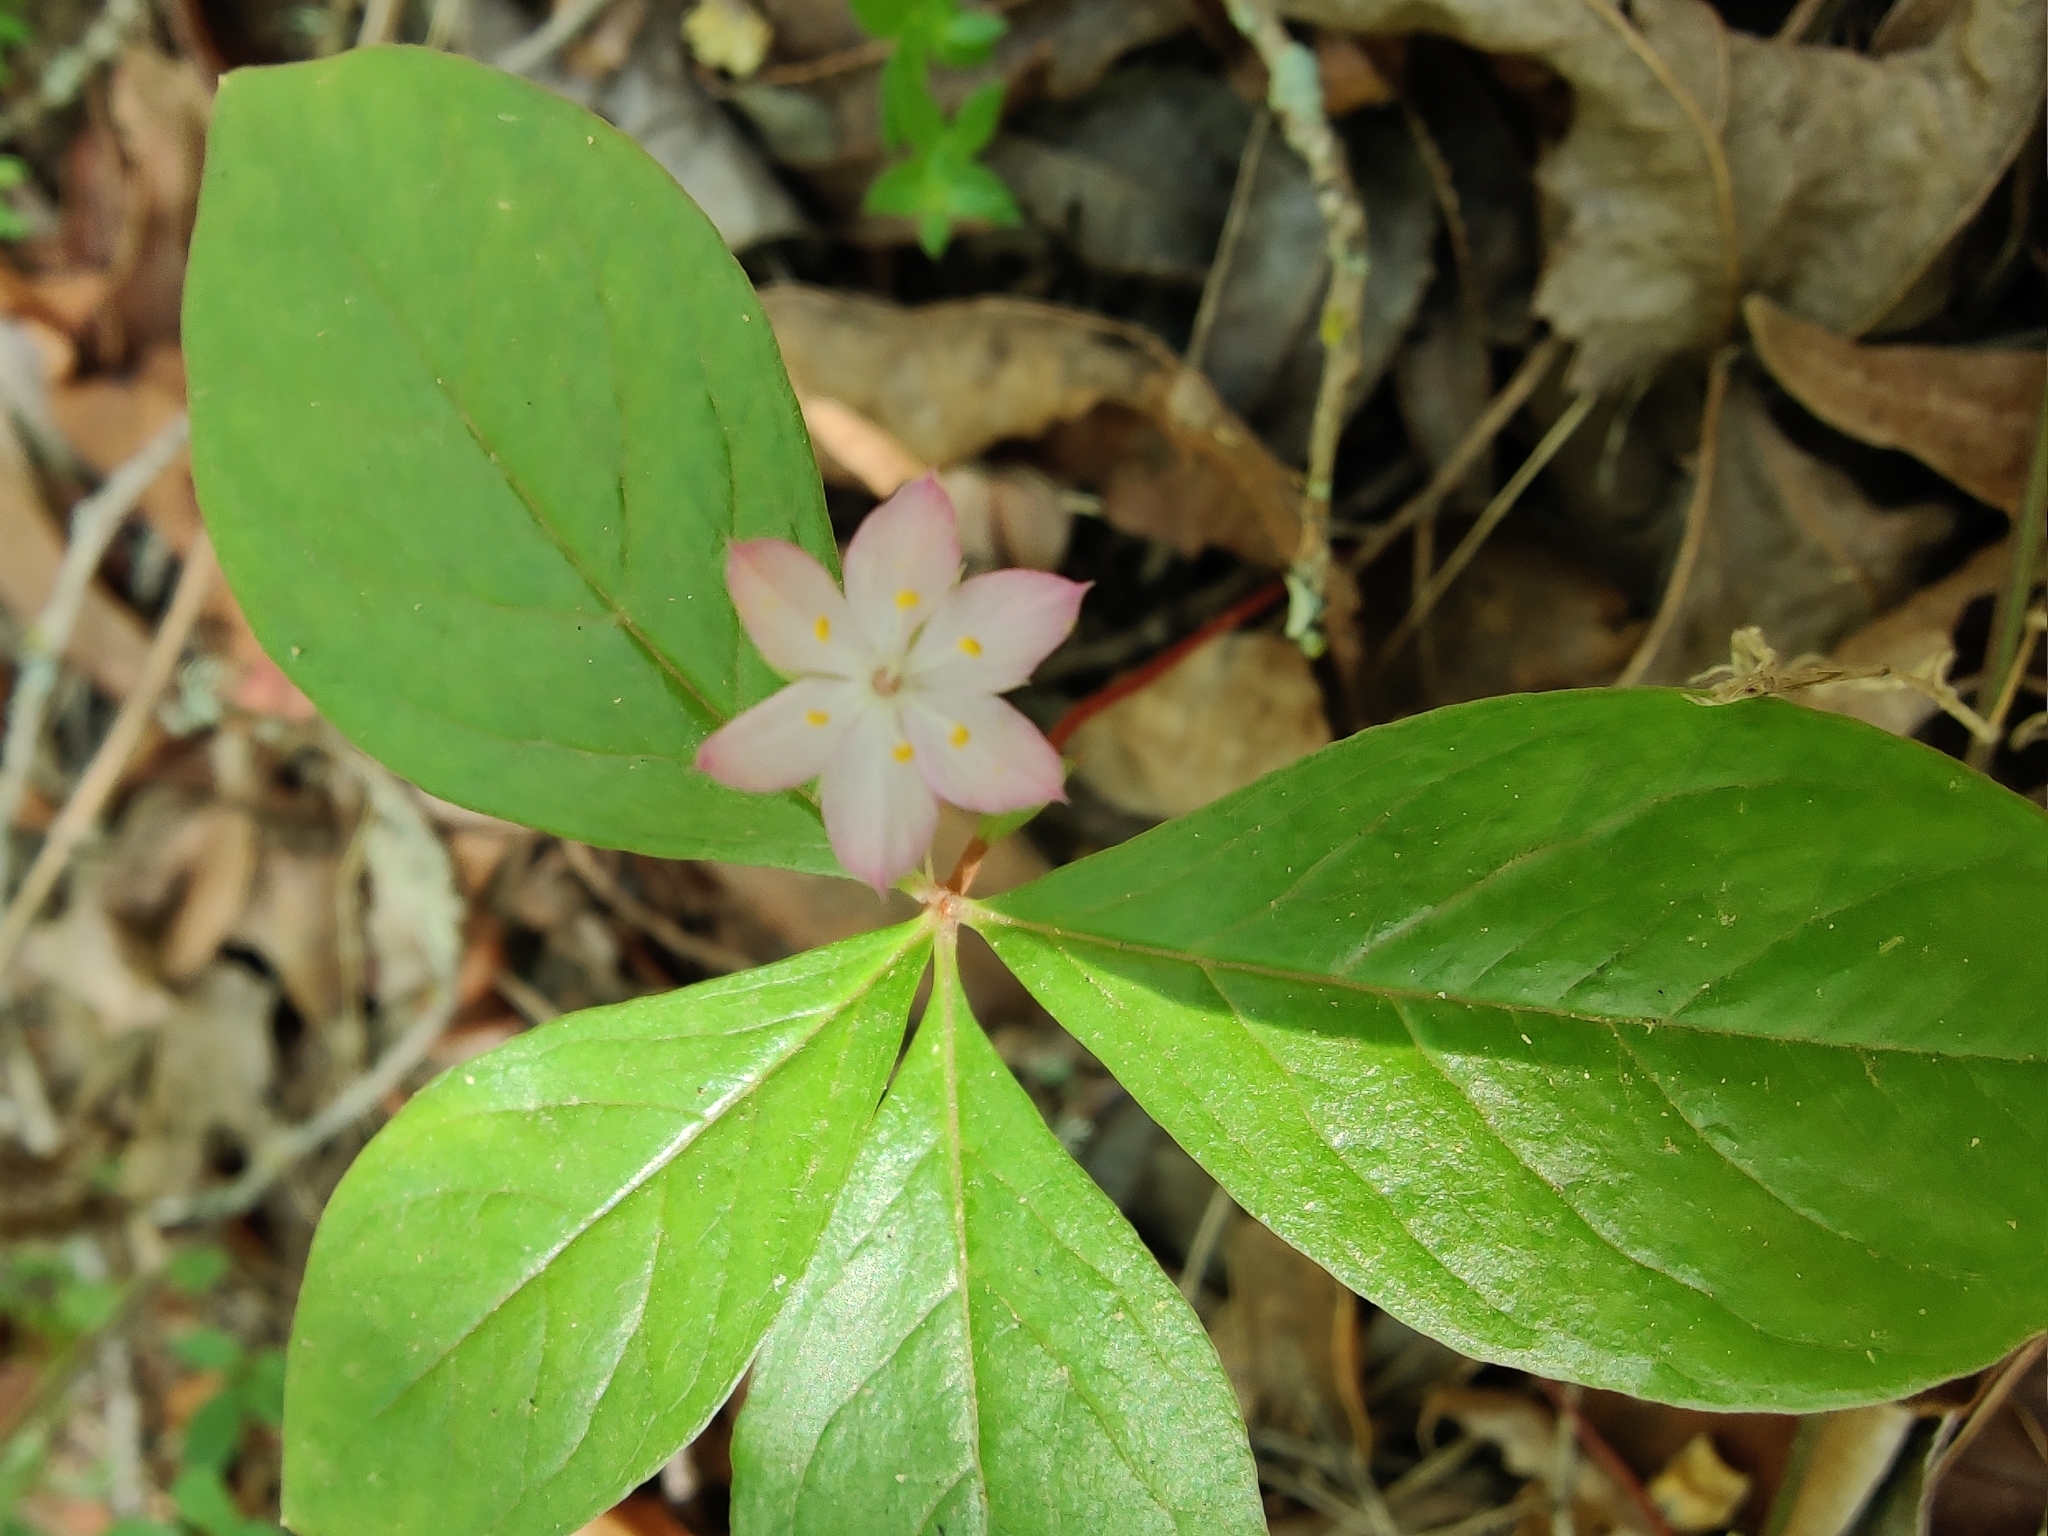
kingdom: Plantae
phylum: Tracheophyta
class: Magnoliopsida
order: Ericales
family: Primulaceae
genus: Lysimachia
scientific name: Lysimachia latifolia
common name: Pacific starflower
